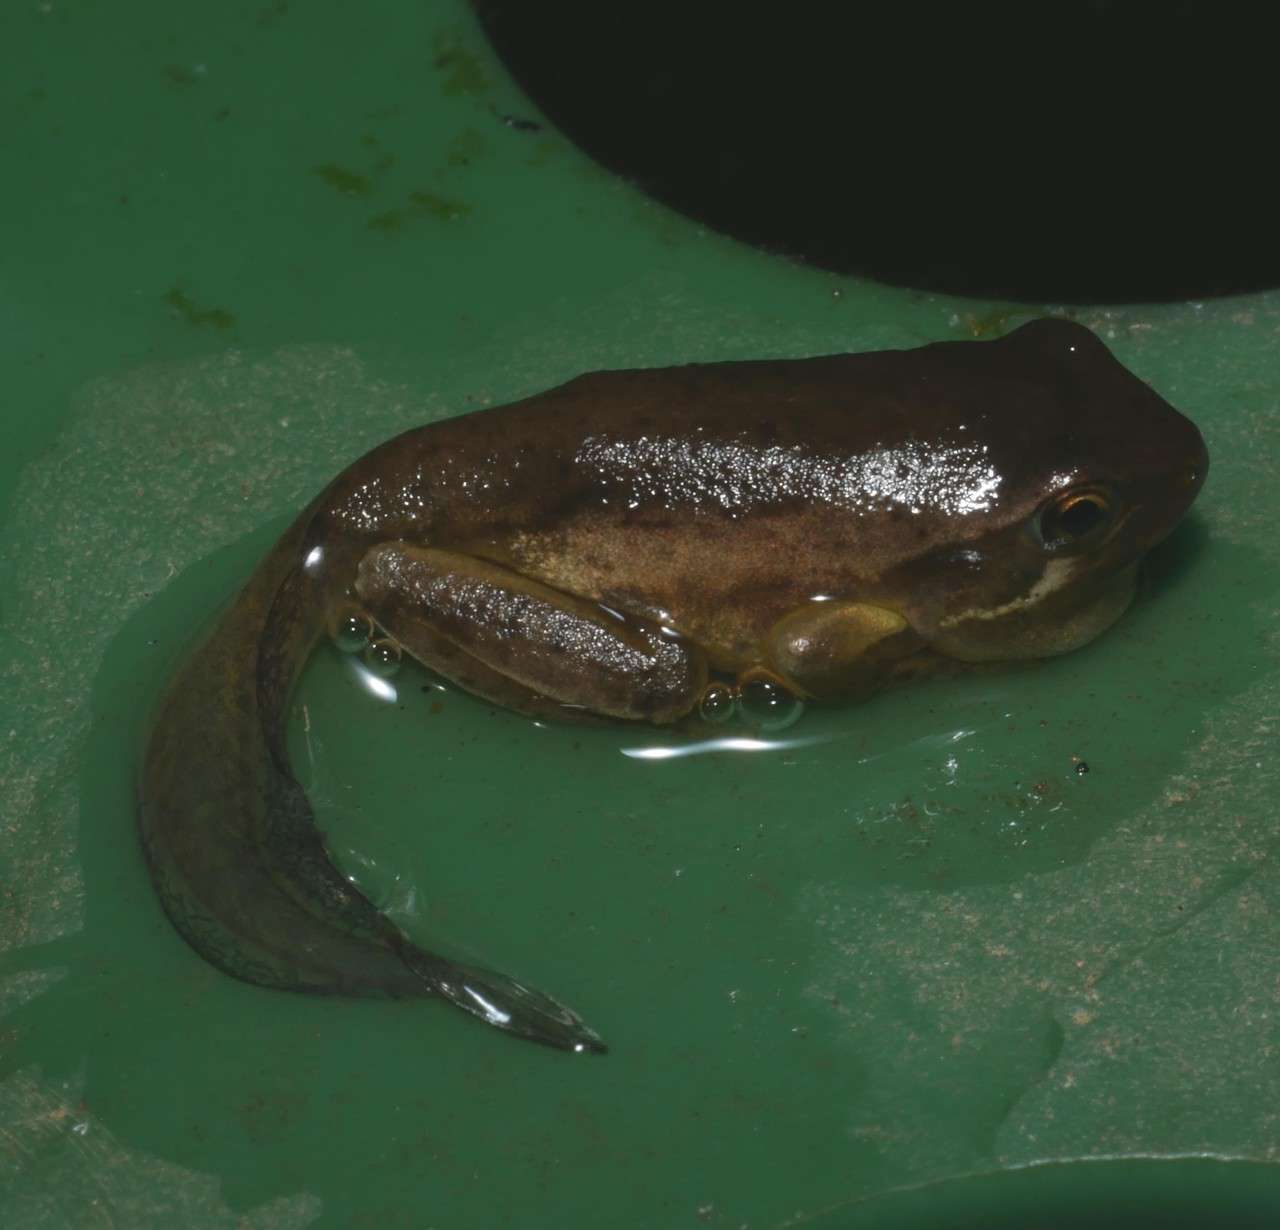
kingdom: Animalia
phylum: Chordata
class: Amphibia
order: Anura
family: Pelodryadidae
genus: Litoria
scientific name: Litoria ewingii
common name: Southern brown tree frog
